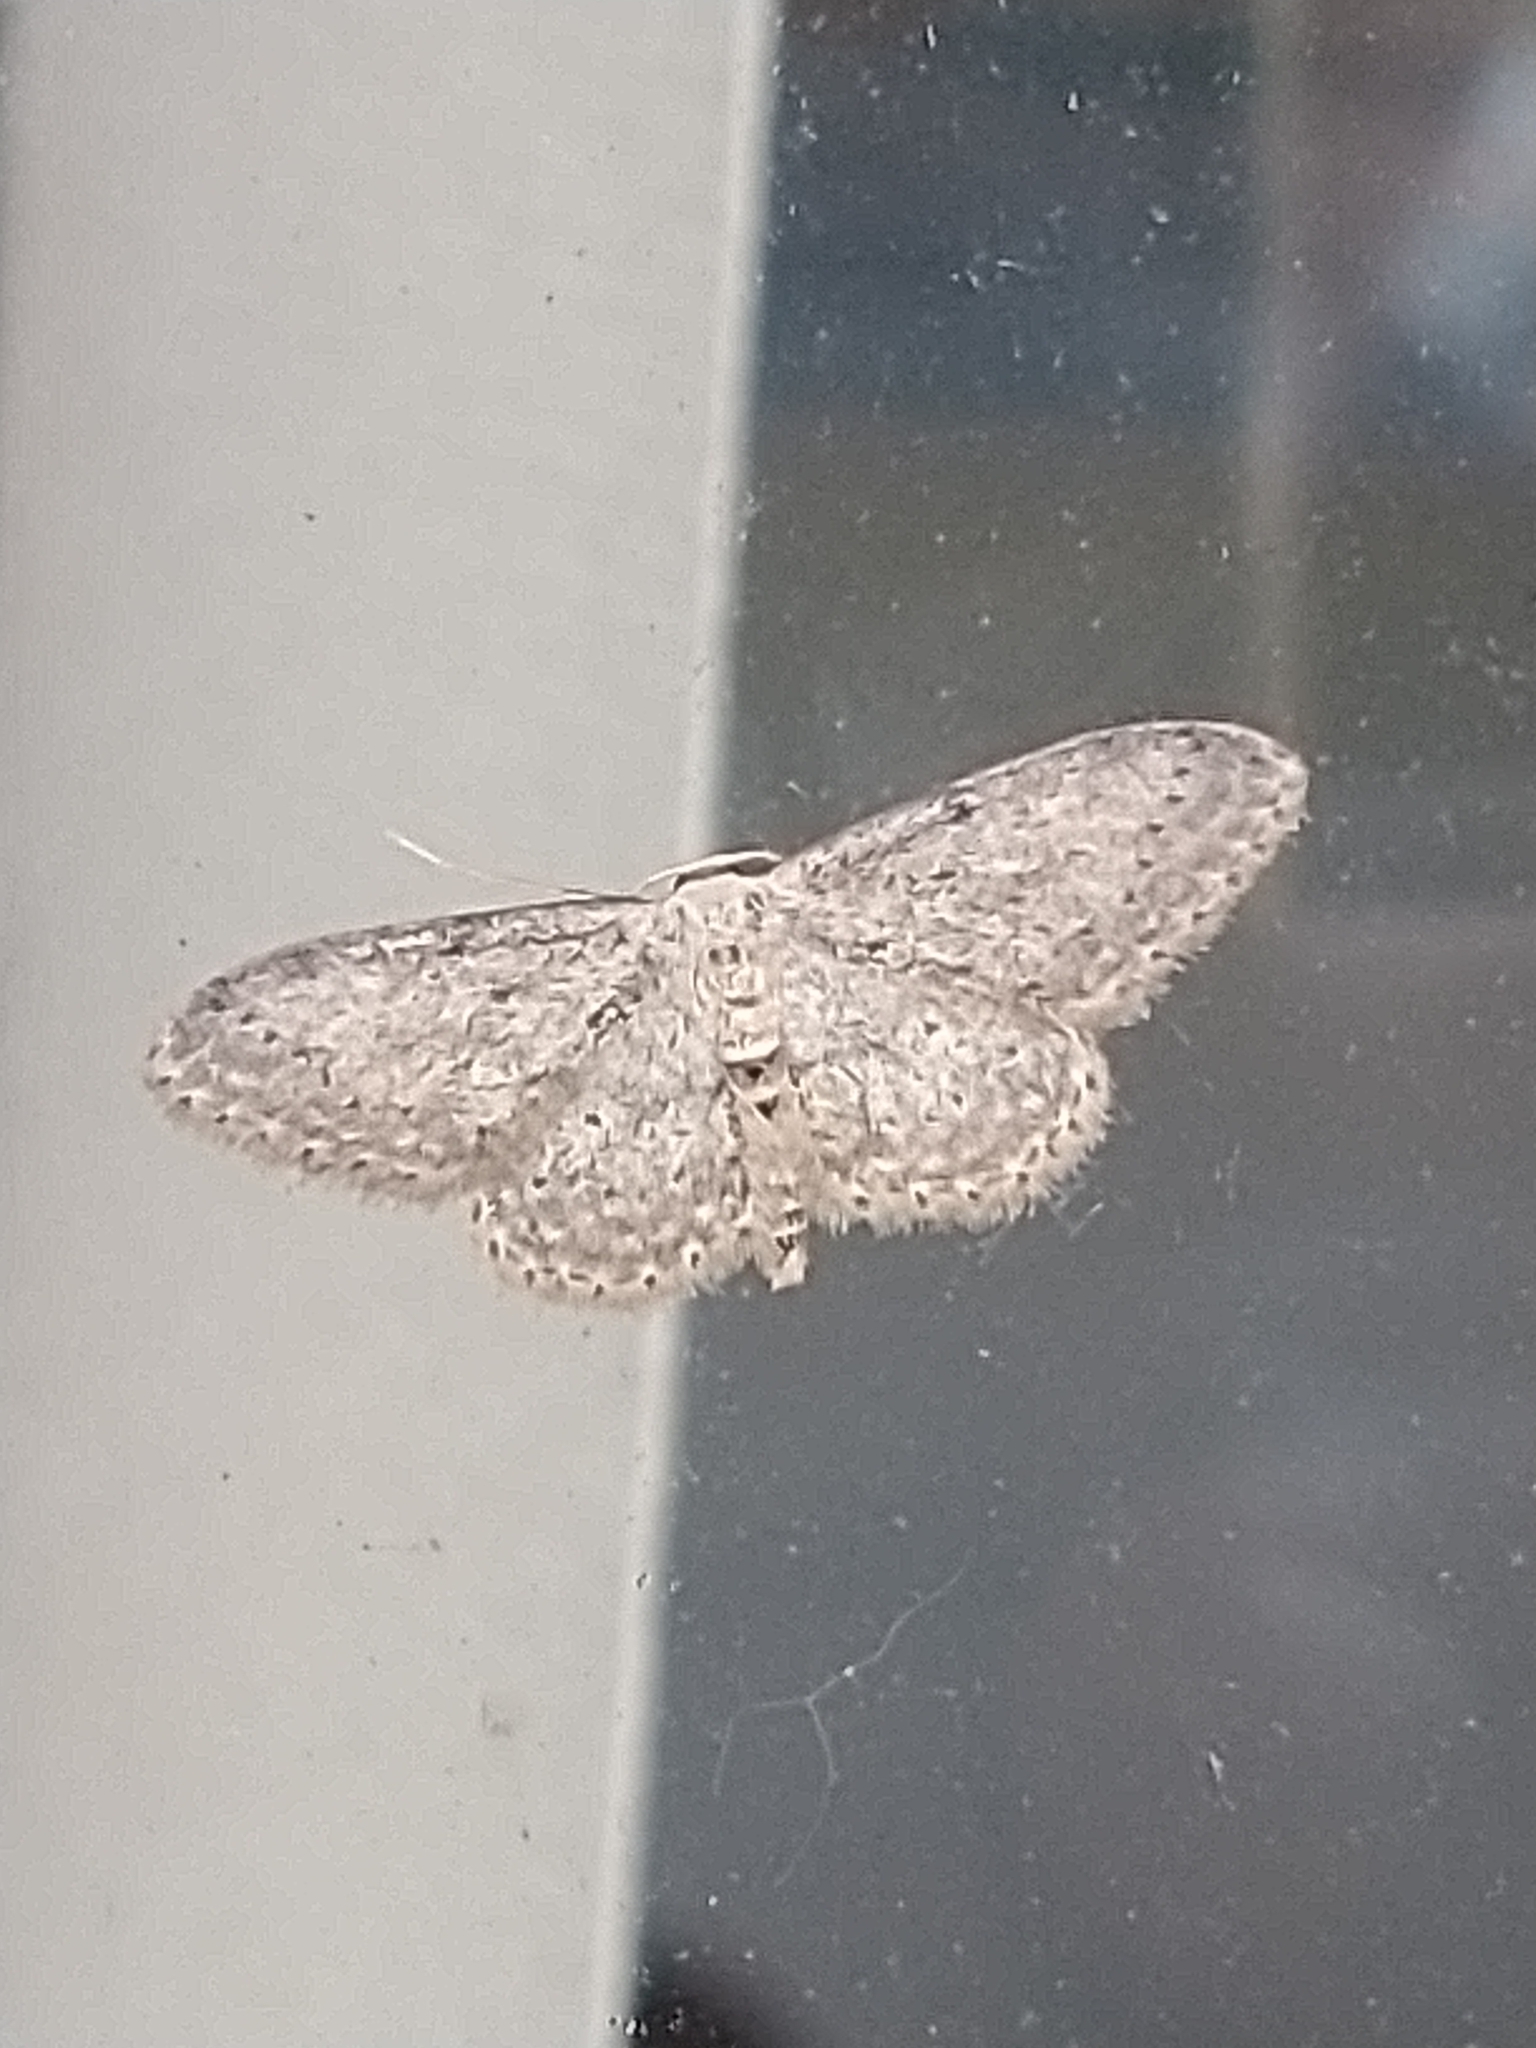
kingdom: Animalia
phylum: Arthropoda
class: Insecta
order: Lepidoptera
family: Geometridae
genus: Idaea
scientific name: Idaea seriata
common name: Small dusty wave
